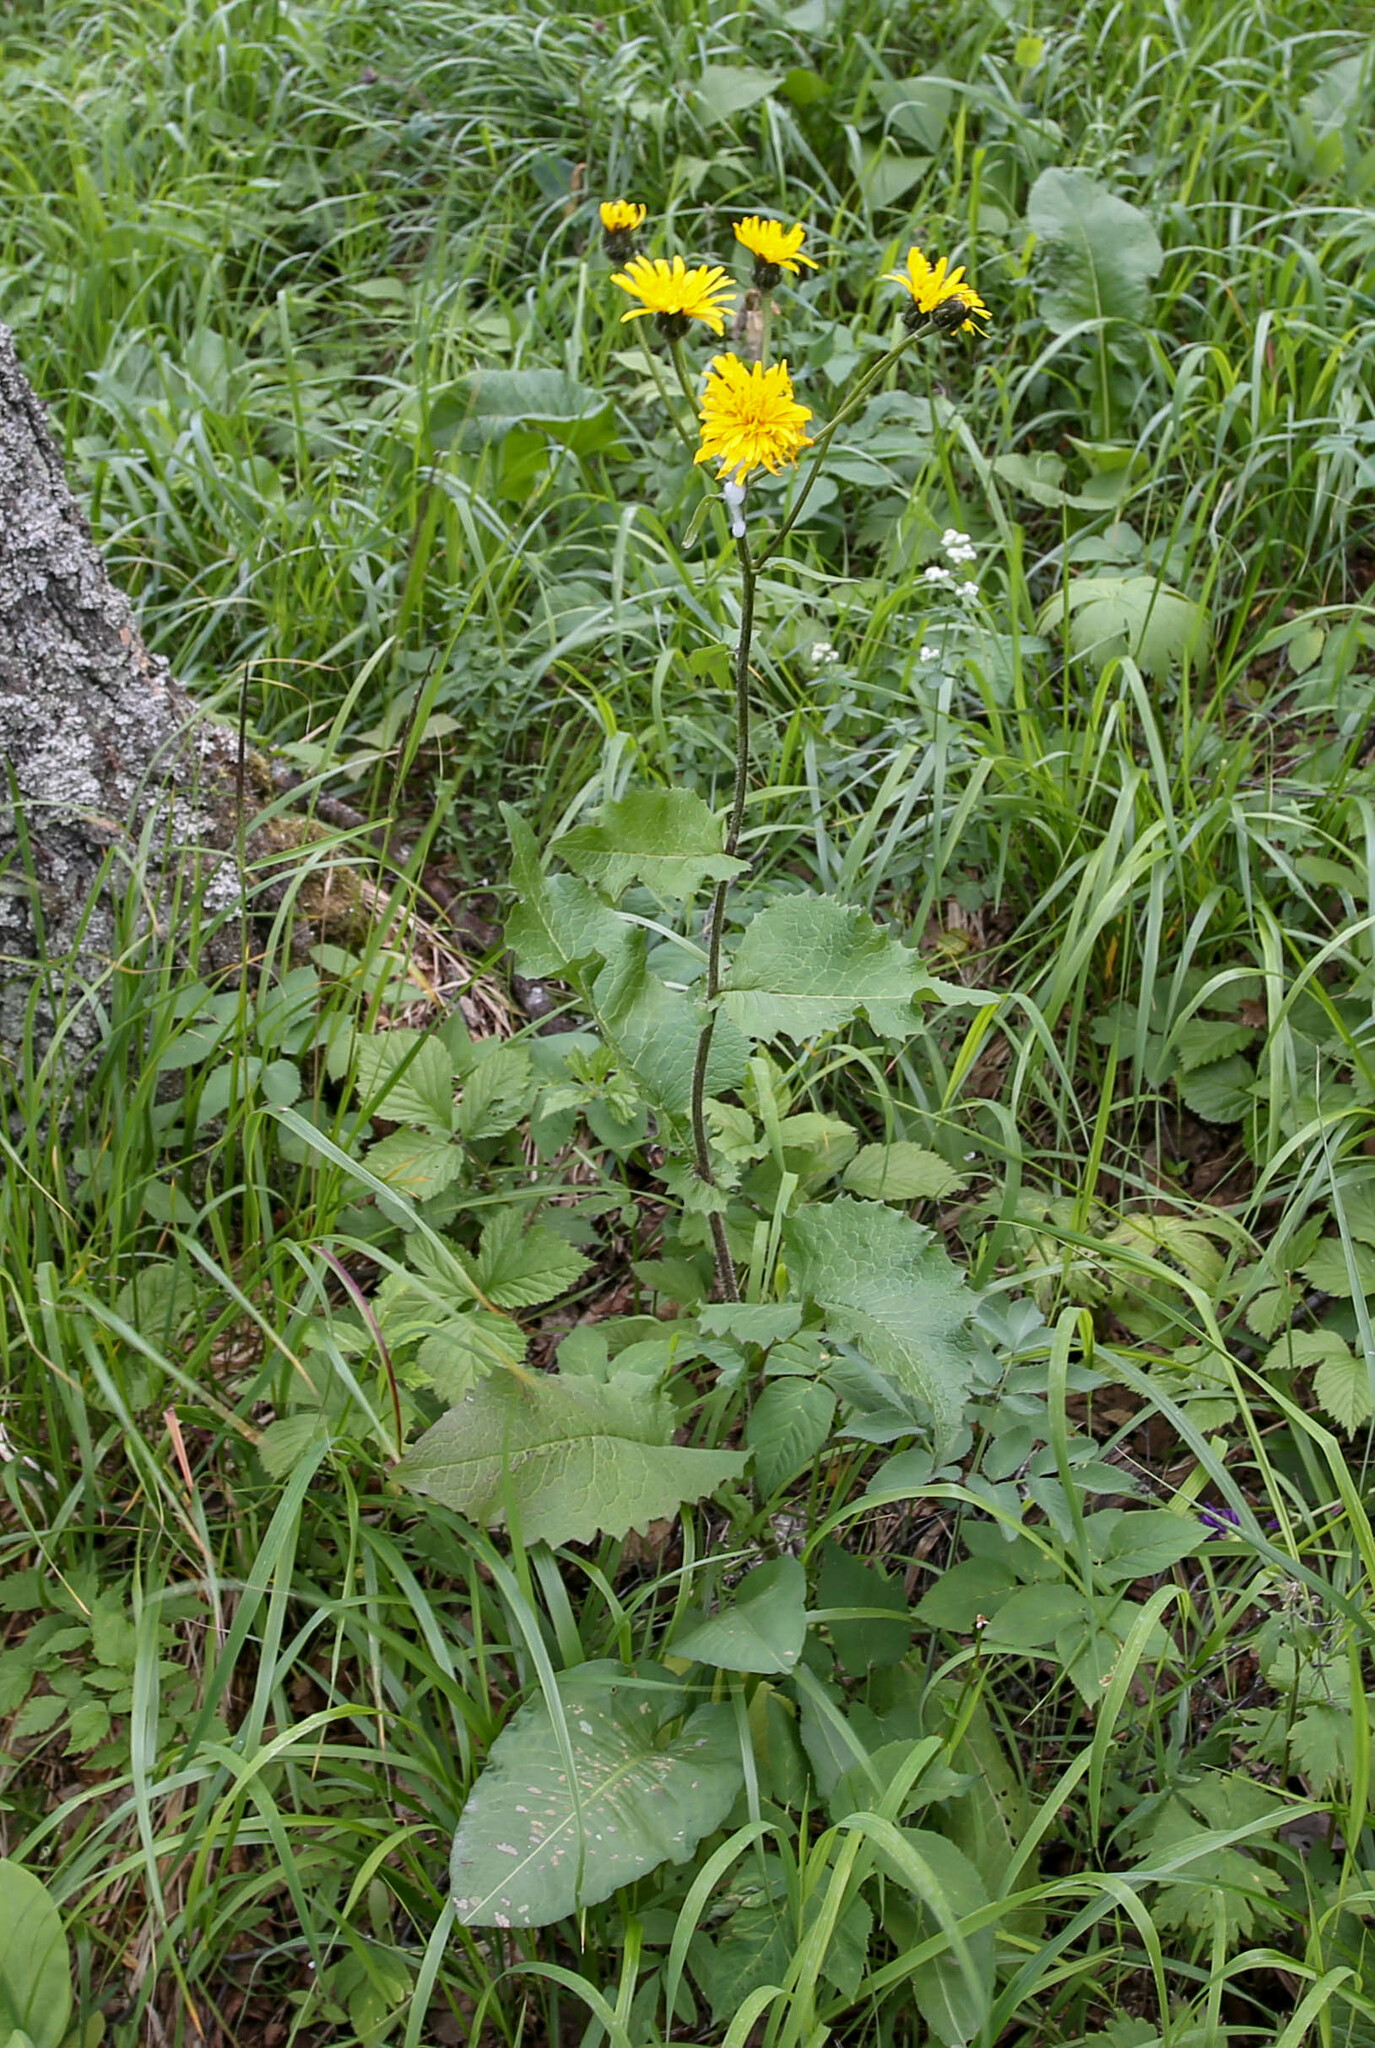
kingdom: Plantae
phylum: Tracheophyta
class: Magnoliopsida
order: Asterales
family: Asteraceae
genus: Crepis
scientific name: Crepis sibirica
